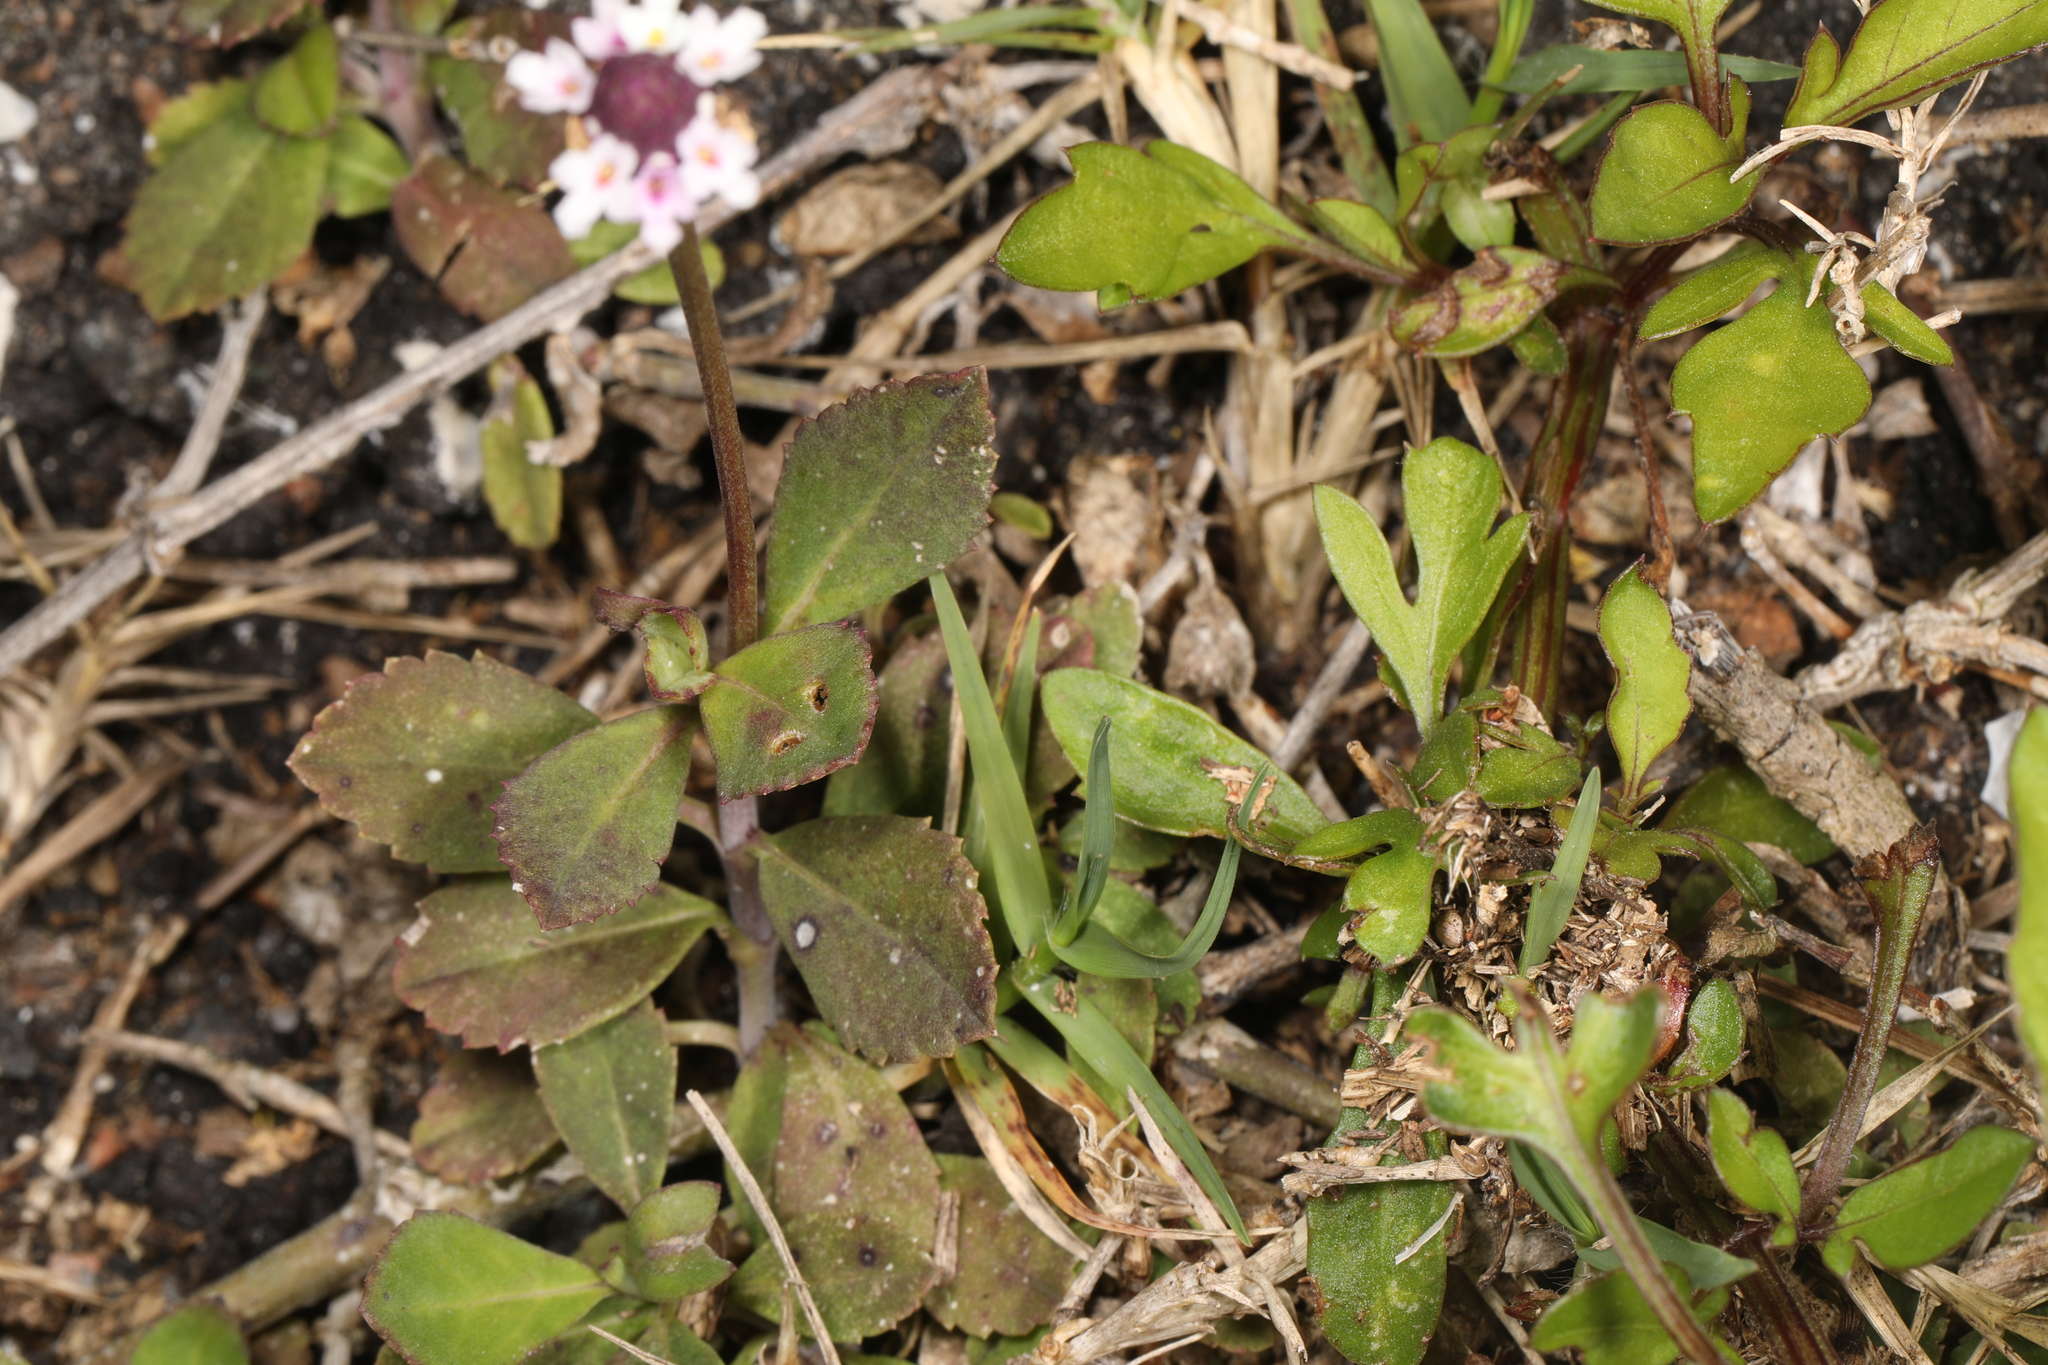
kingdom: Plantae
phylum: Tracheophyta
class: Magnoliopsida
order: Lamiales
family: Verbenaceae
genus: Phyla
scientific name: Phyla nodiflora
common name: Frogfruit
